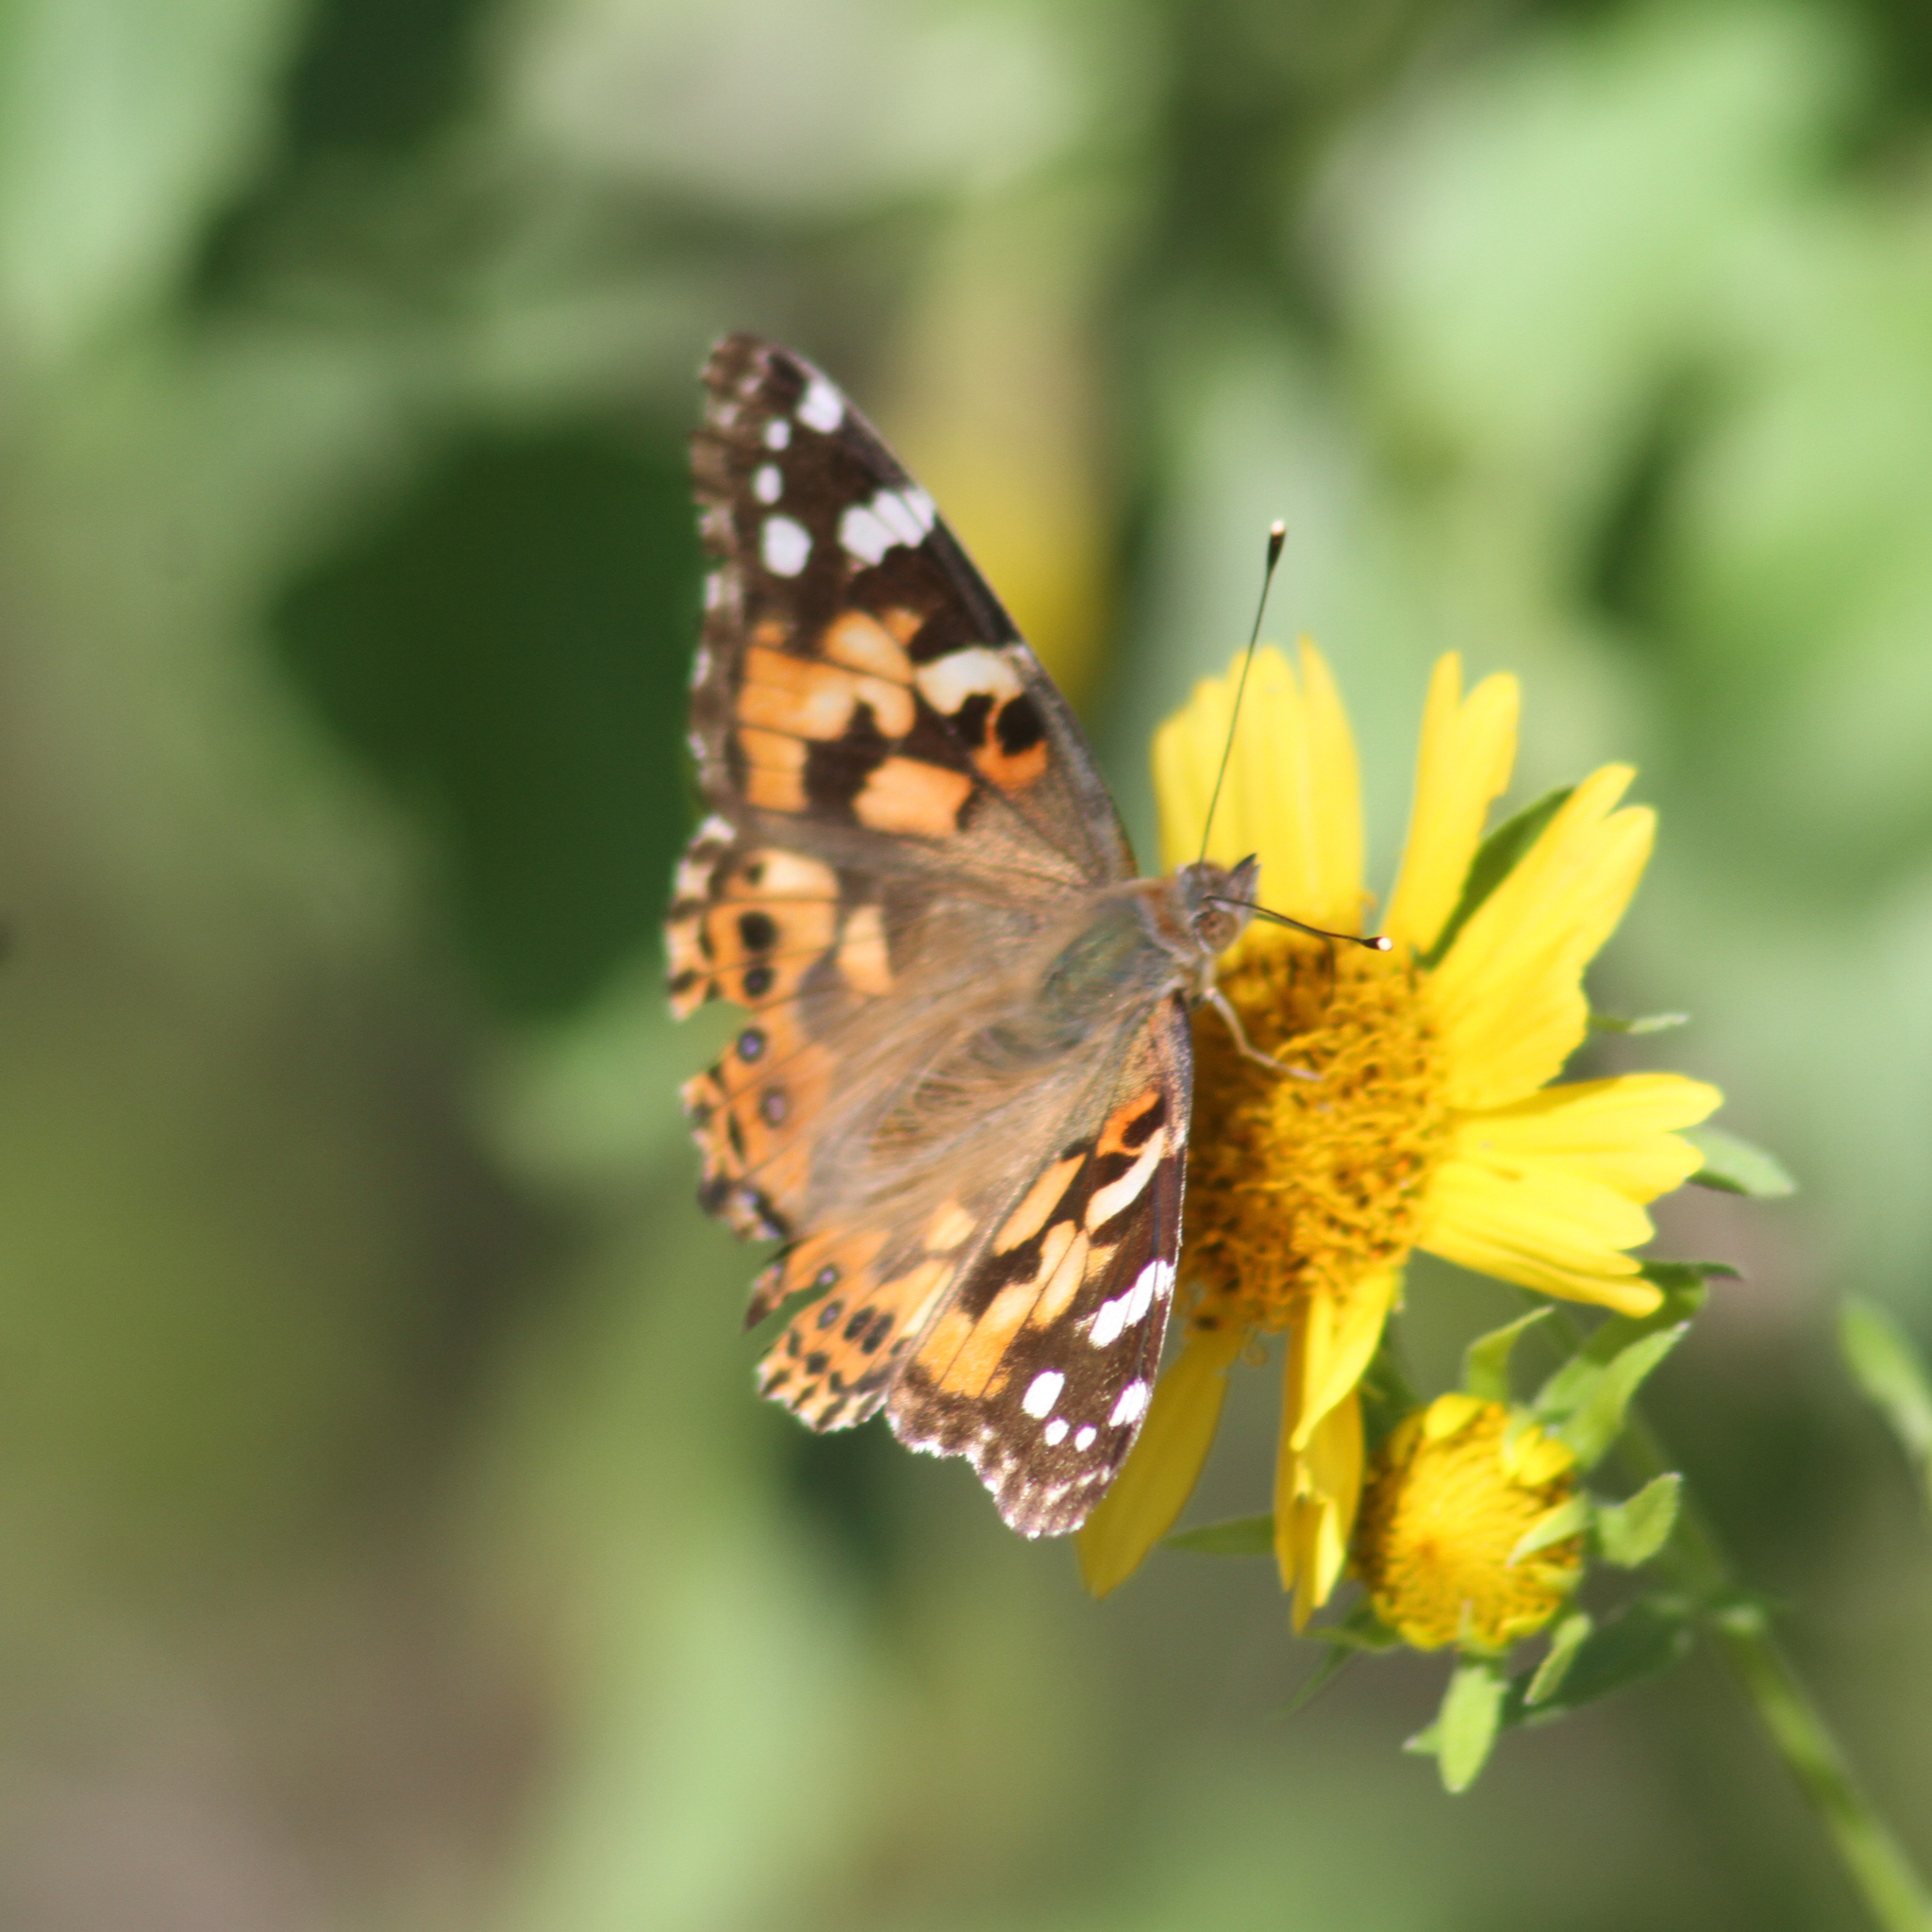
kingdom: Animalia
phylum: Arthropoda
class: Insecta
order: Lepidoptera
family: Nymphalidae
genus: Vanessa
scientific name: Vanessa cardui
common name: Painted lady
